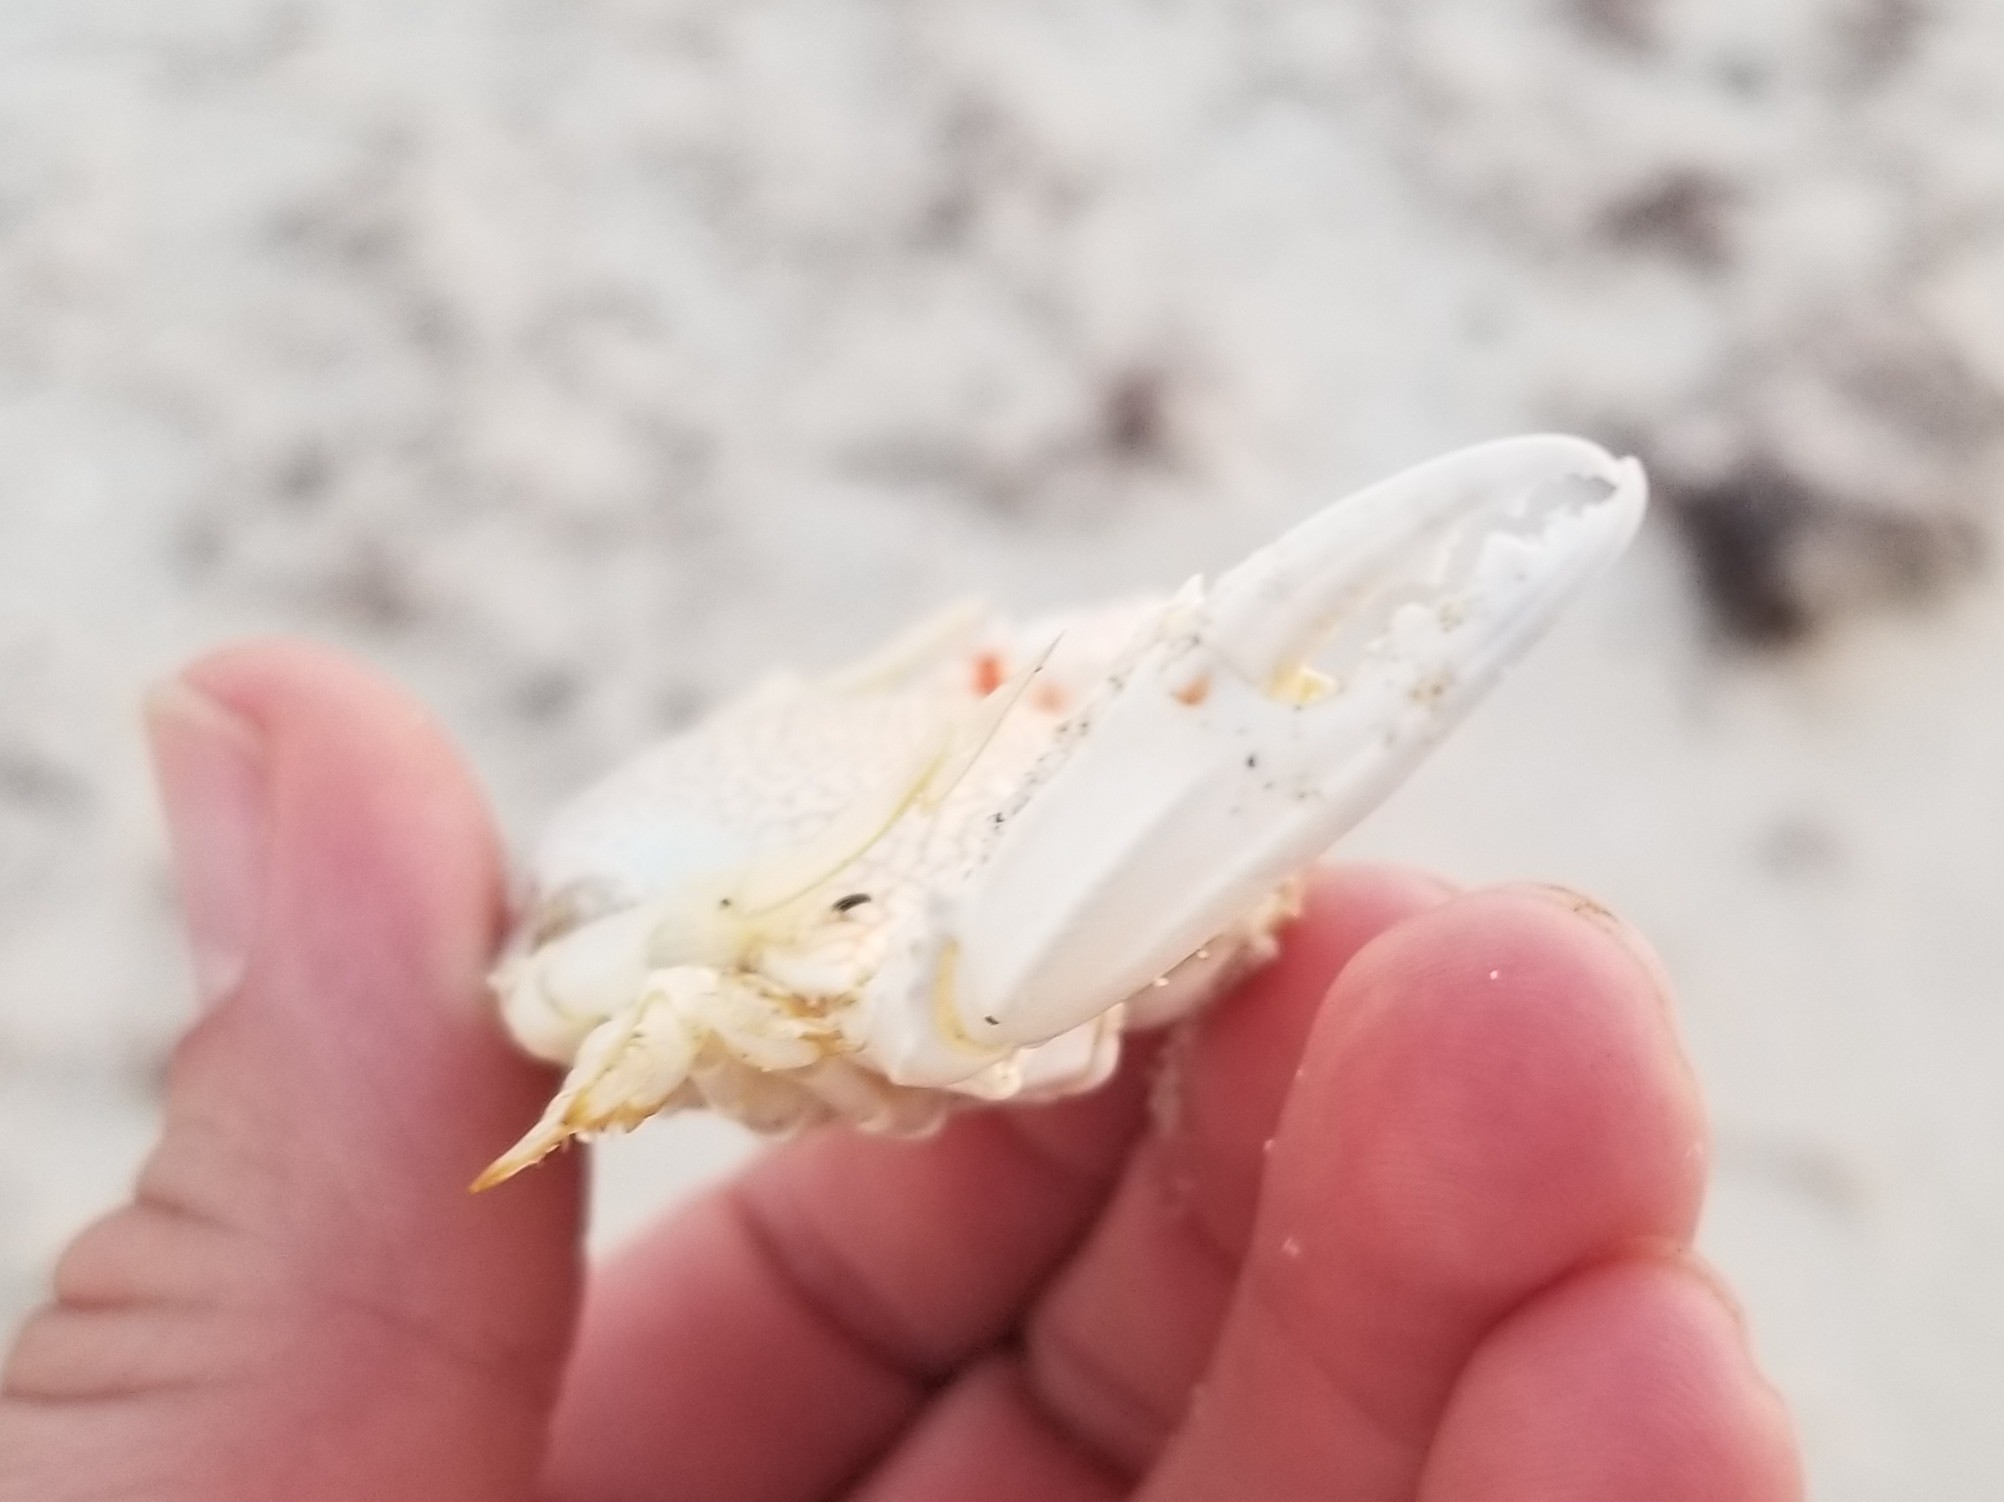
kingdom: Animalia
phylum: Arthropoda
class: Malacostraca
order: Decapoda
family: Portunidae
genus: Arenaeus
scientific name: Arenaeus cribrarius
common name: Speckled crab
